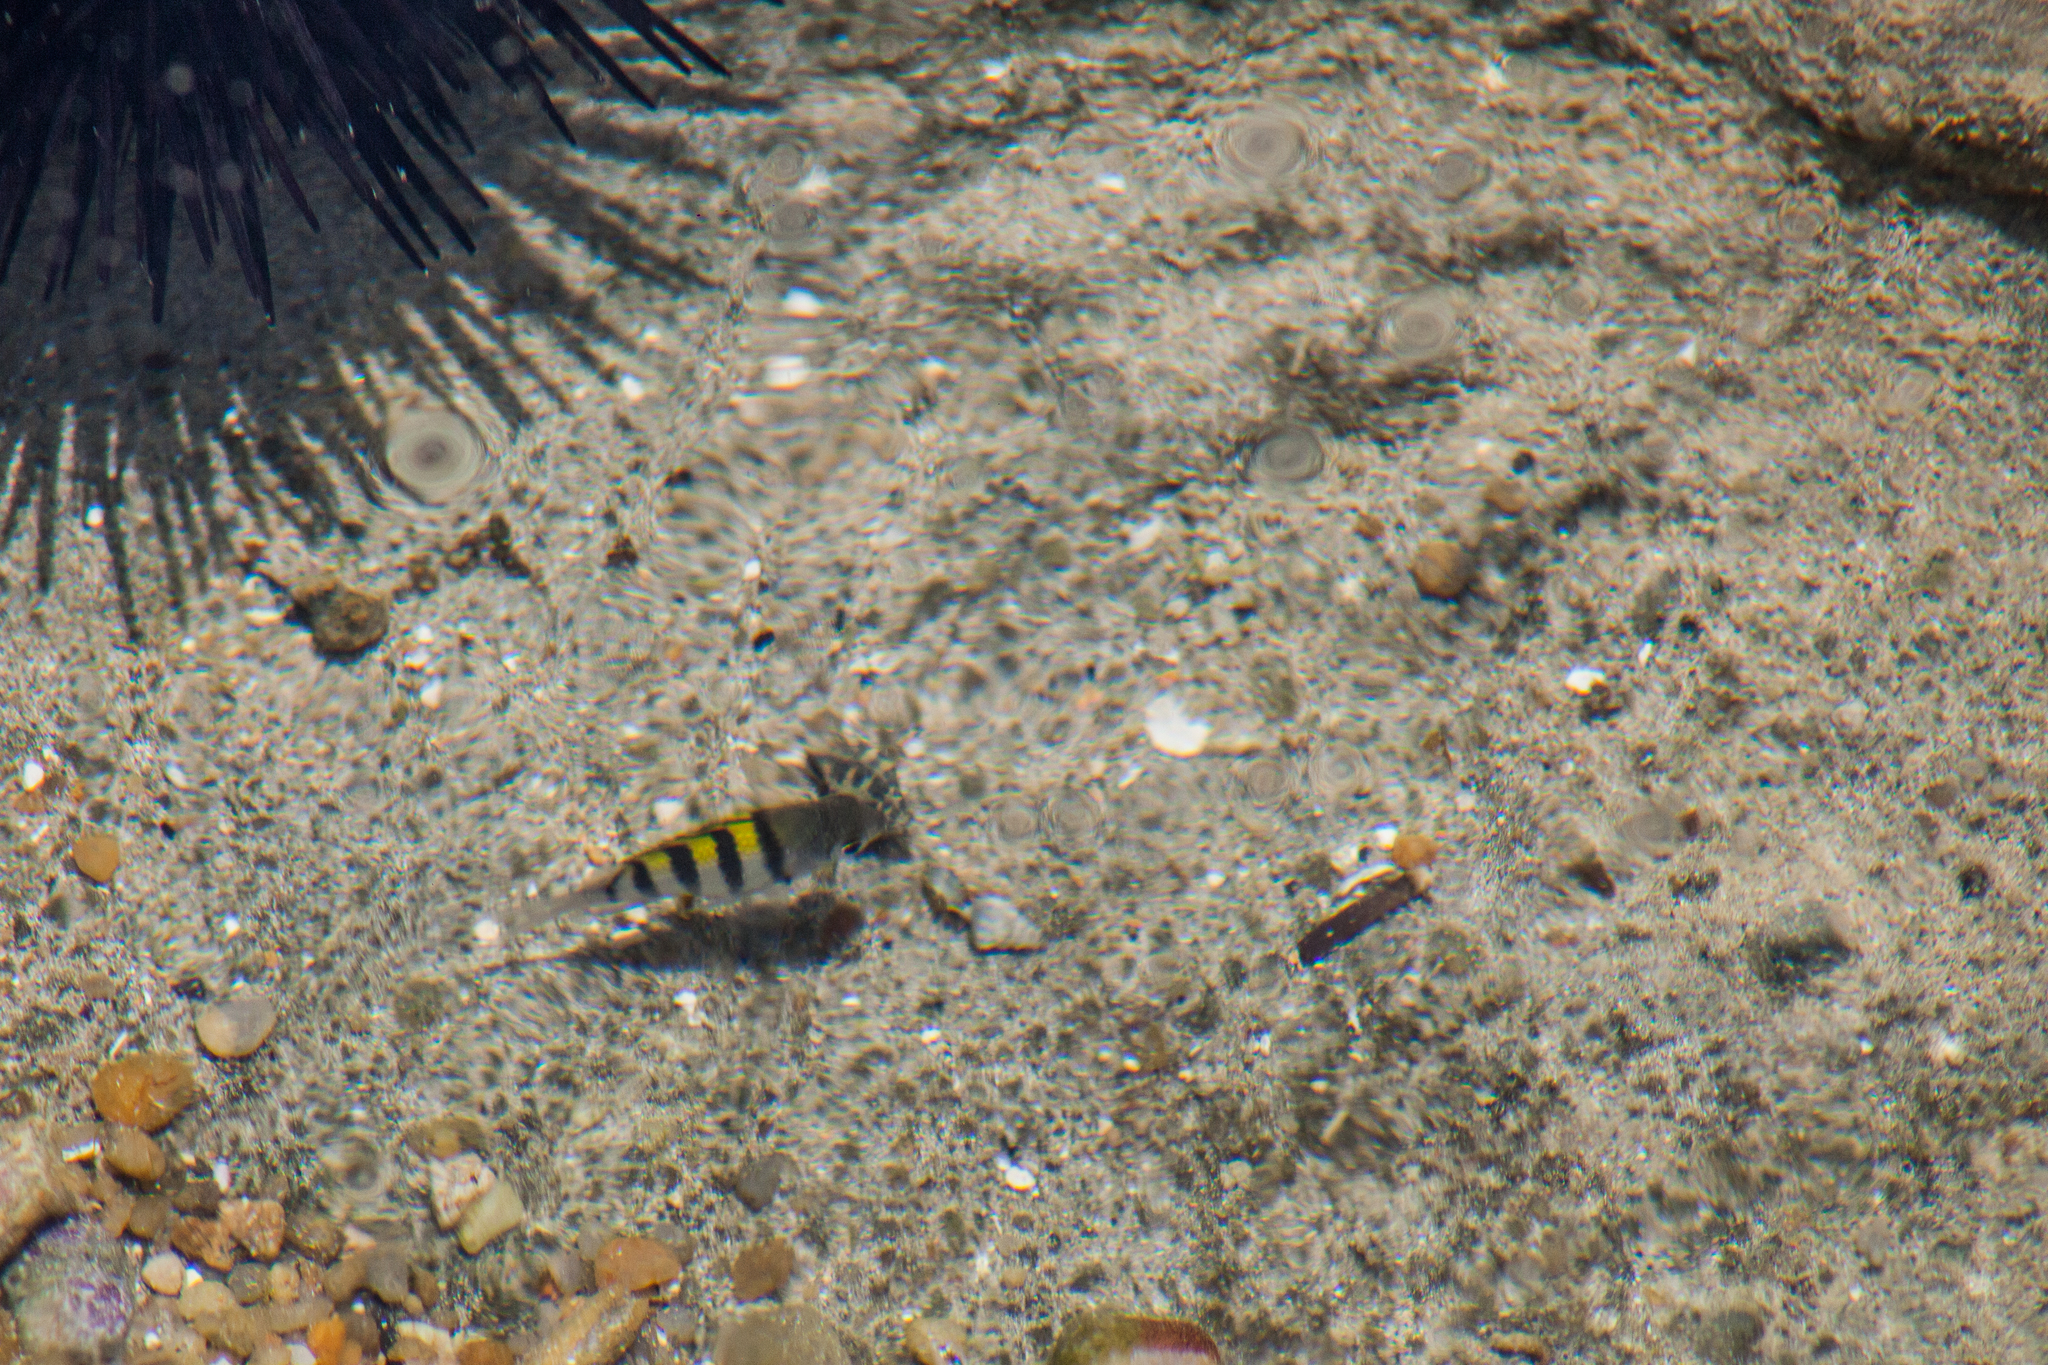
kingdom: Animalia
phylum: Chordata
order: Perciformes
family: Pomacentridae
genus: Abudefduf
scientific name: Abudefduf saxatilis
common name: Sergeant major
